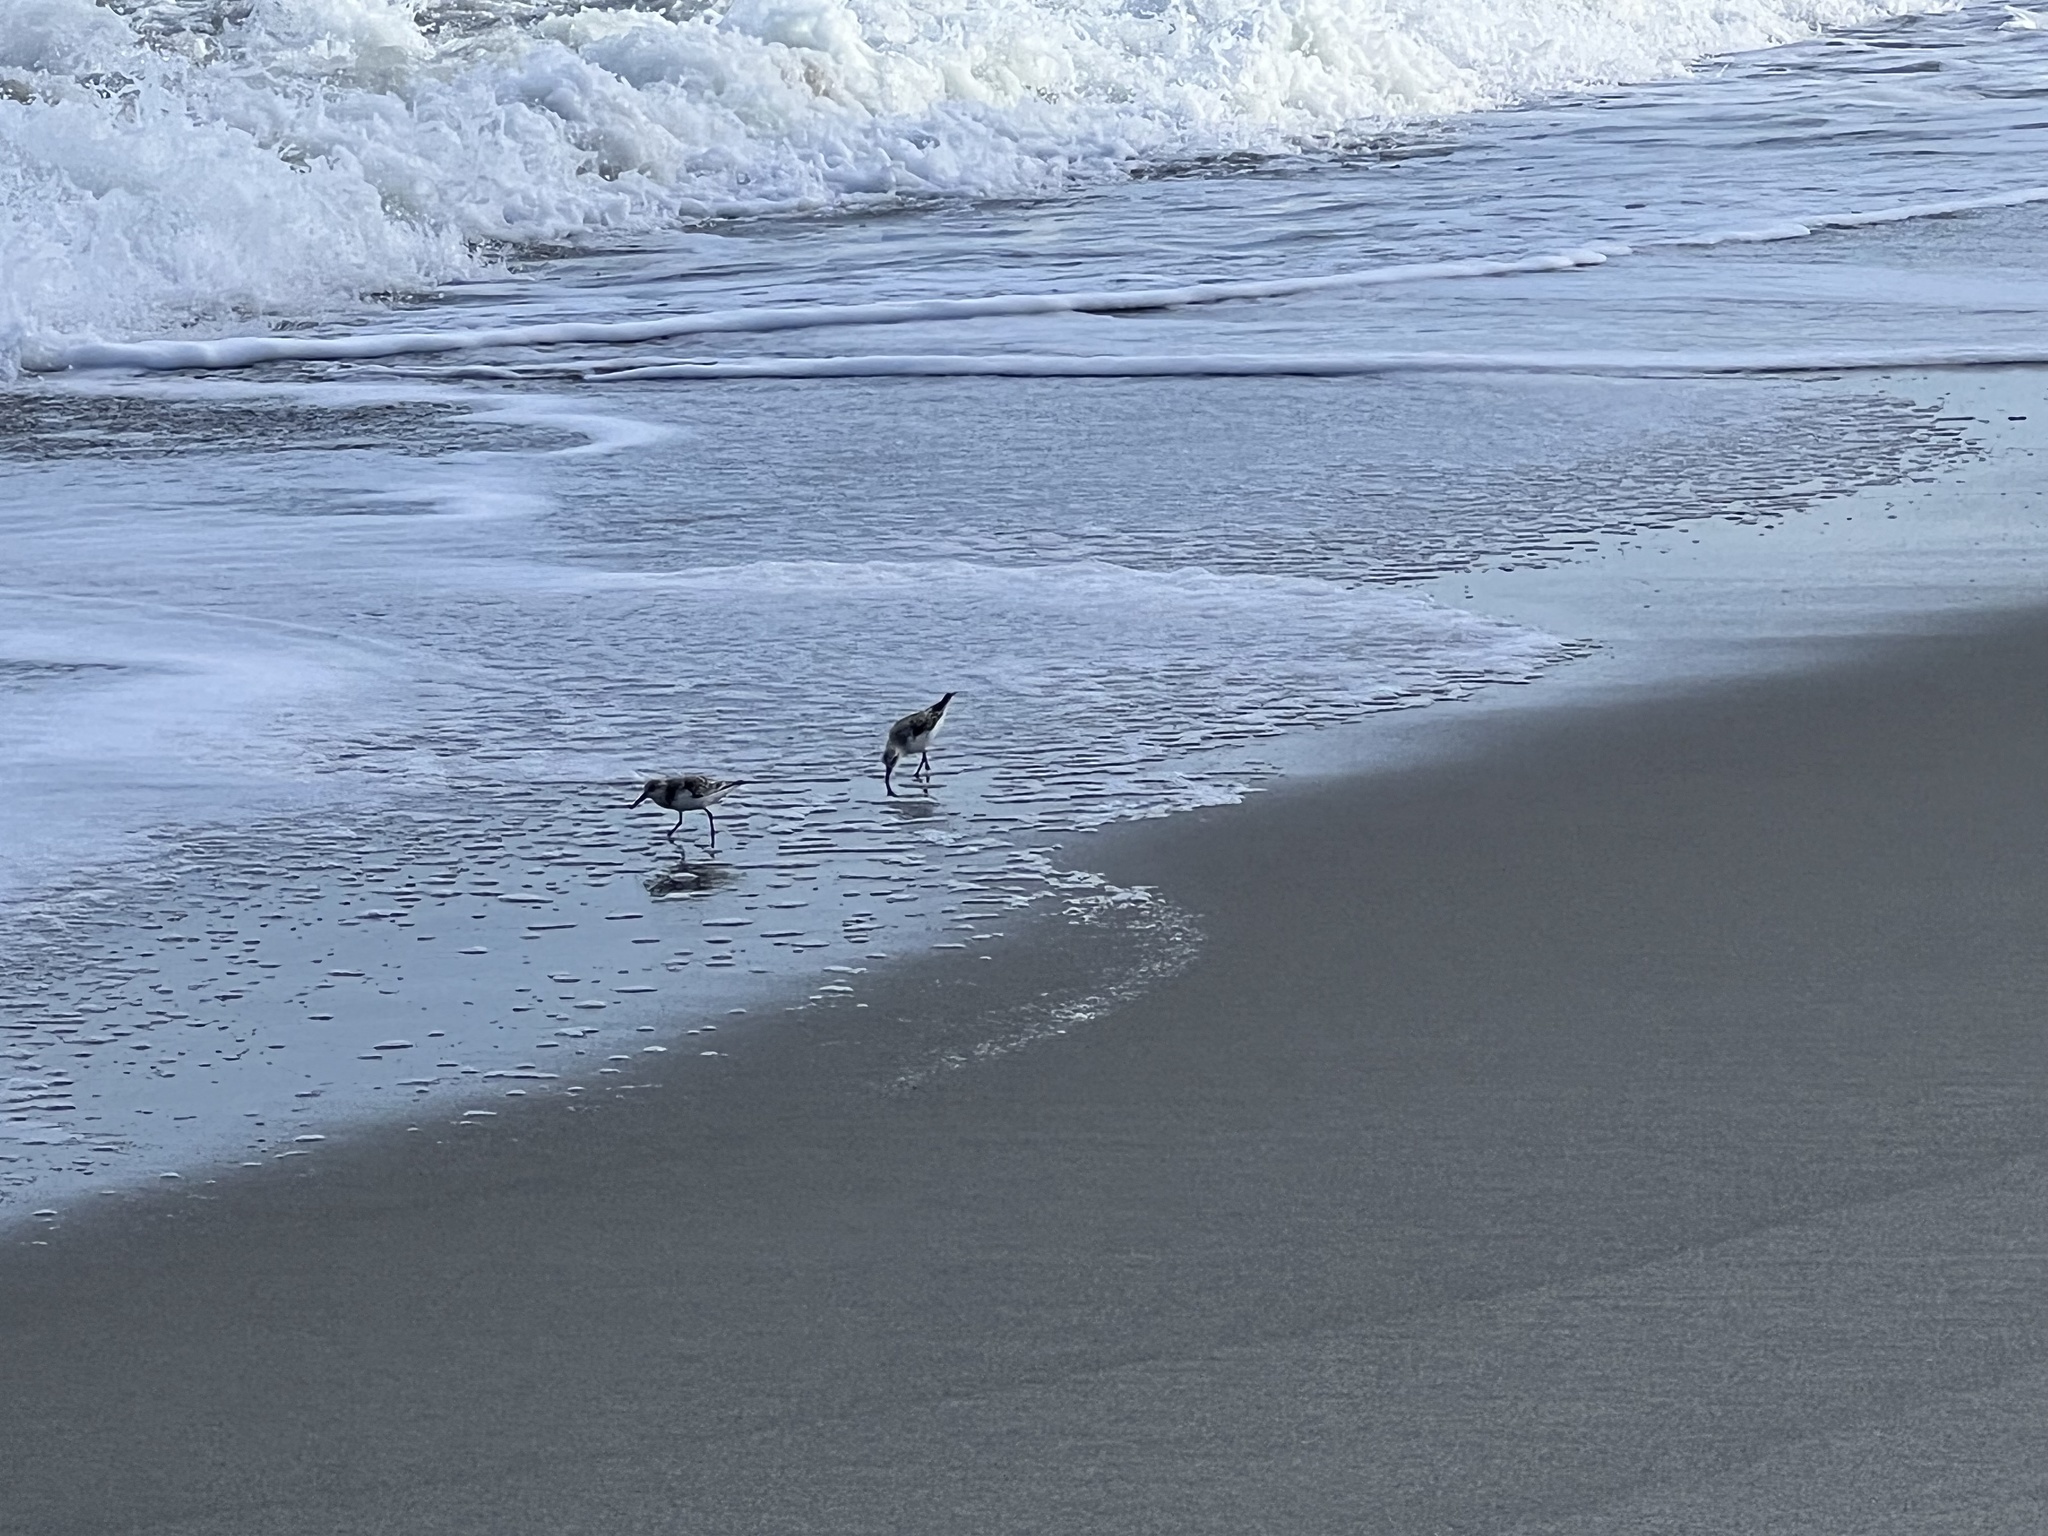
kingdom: Animalia
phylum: Chordata
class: Aves
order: Charadriiformes
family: Scolopacidae
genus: Calidris
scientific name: Calidris alba
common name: Sanderling
